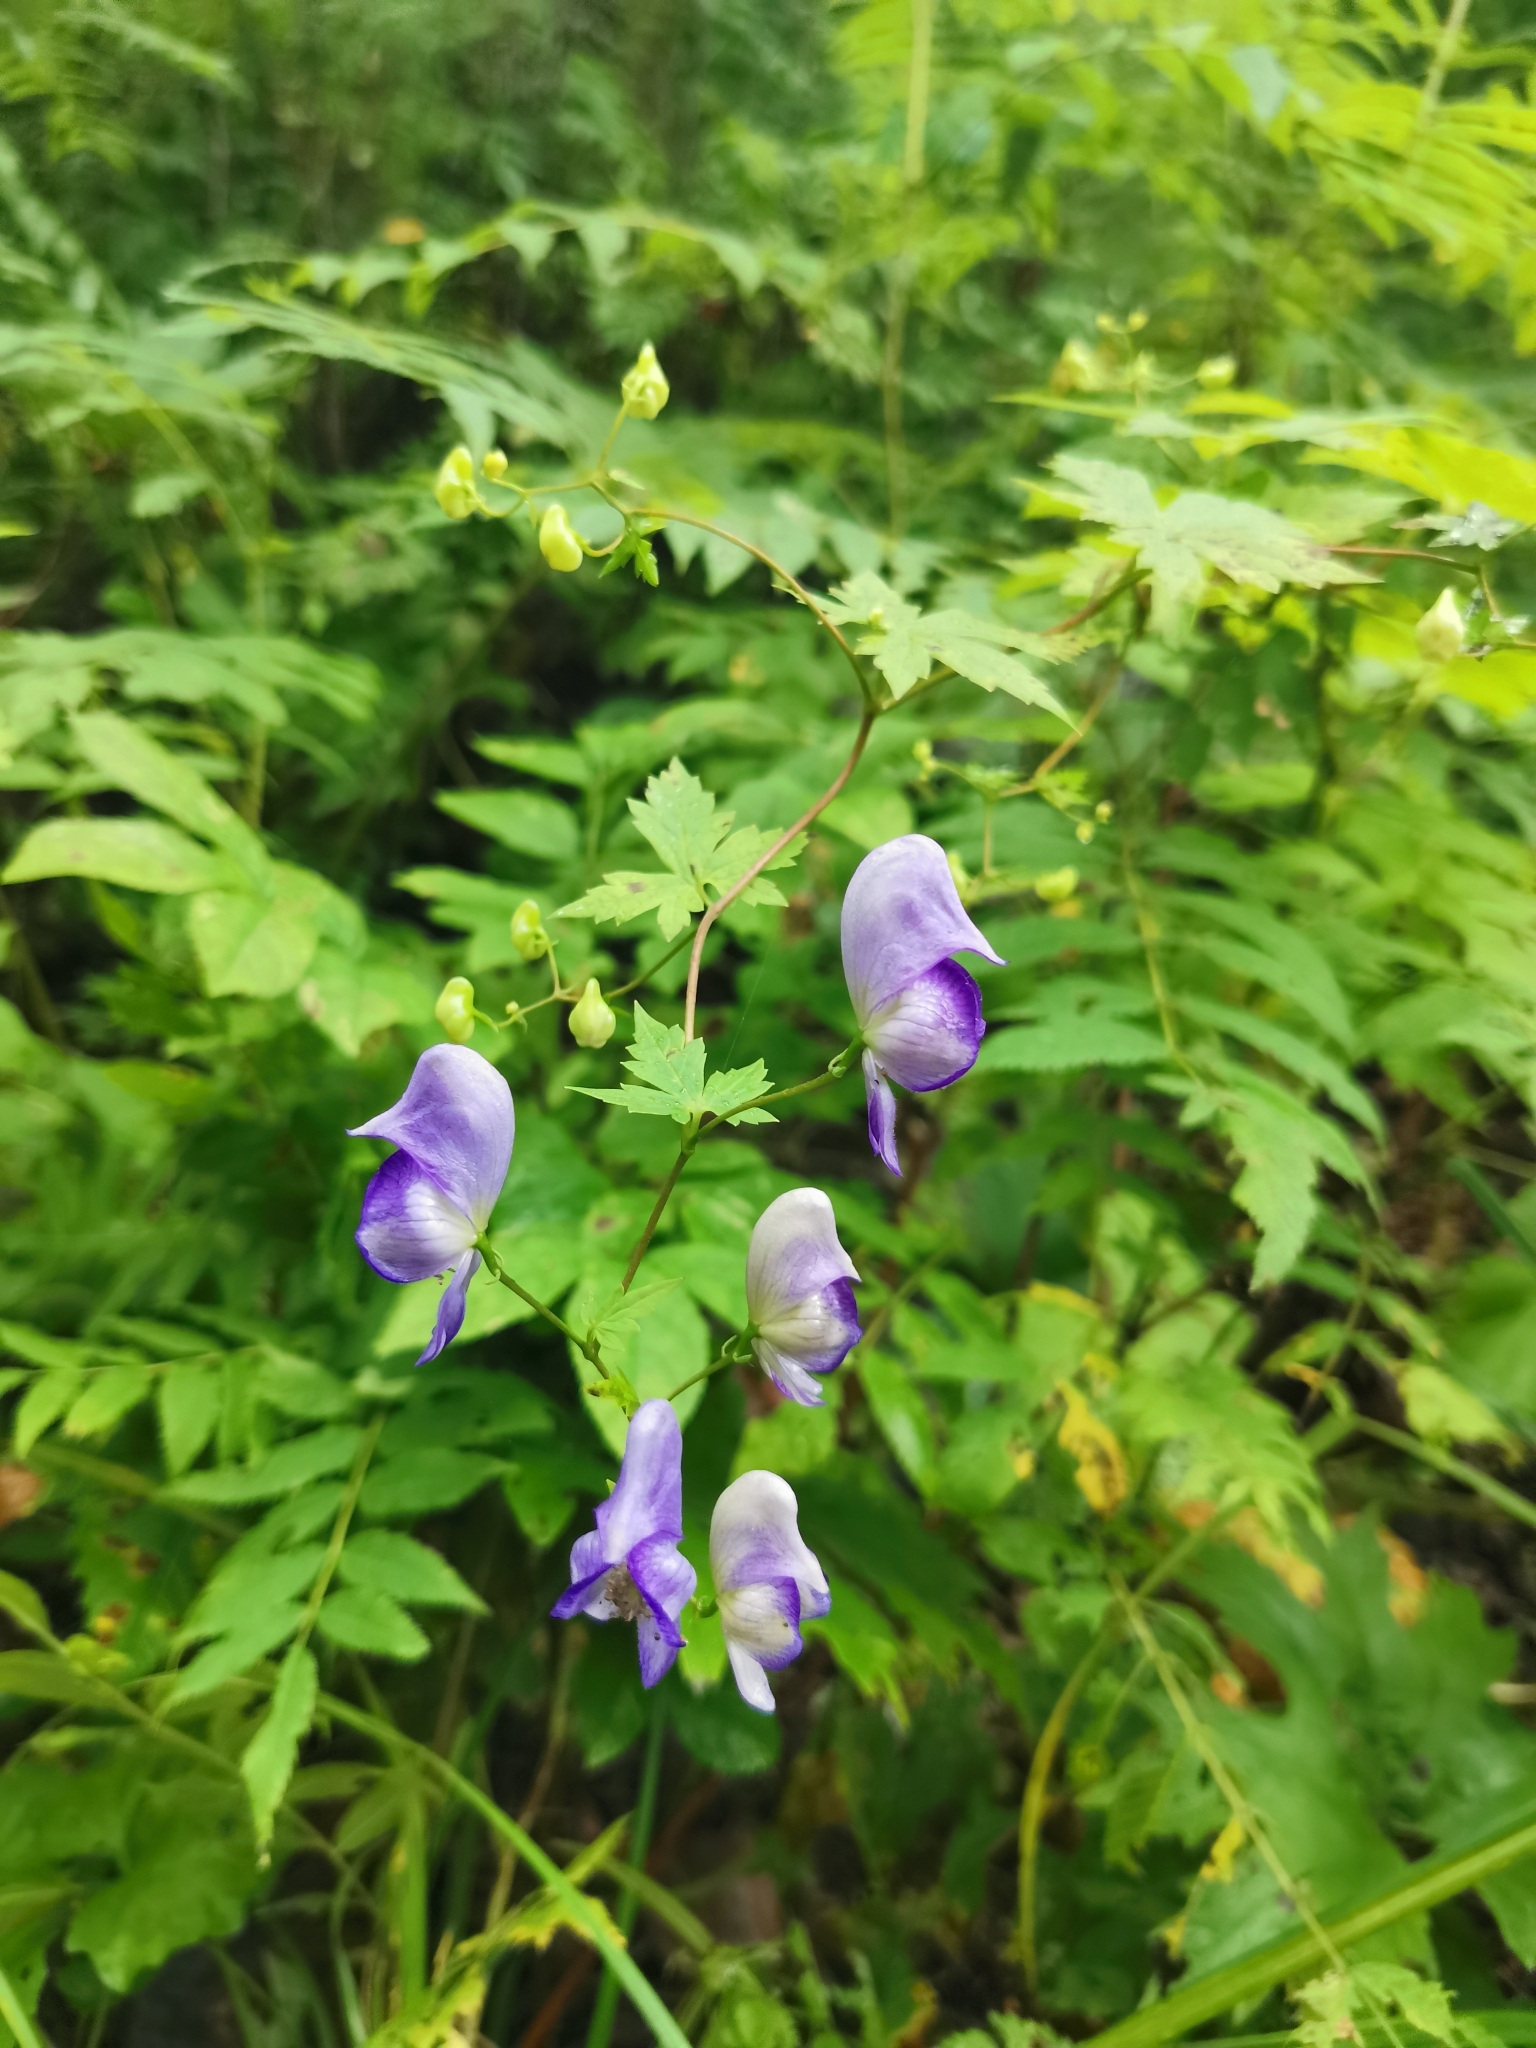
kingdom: Plantae
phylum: Tracheophyta
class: Magnoliopsida
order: Ranunculales
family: Ranunculaceae
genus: Aconitum
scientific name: Aconitum sczukinii
